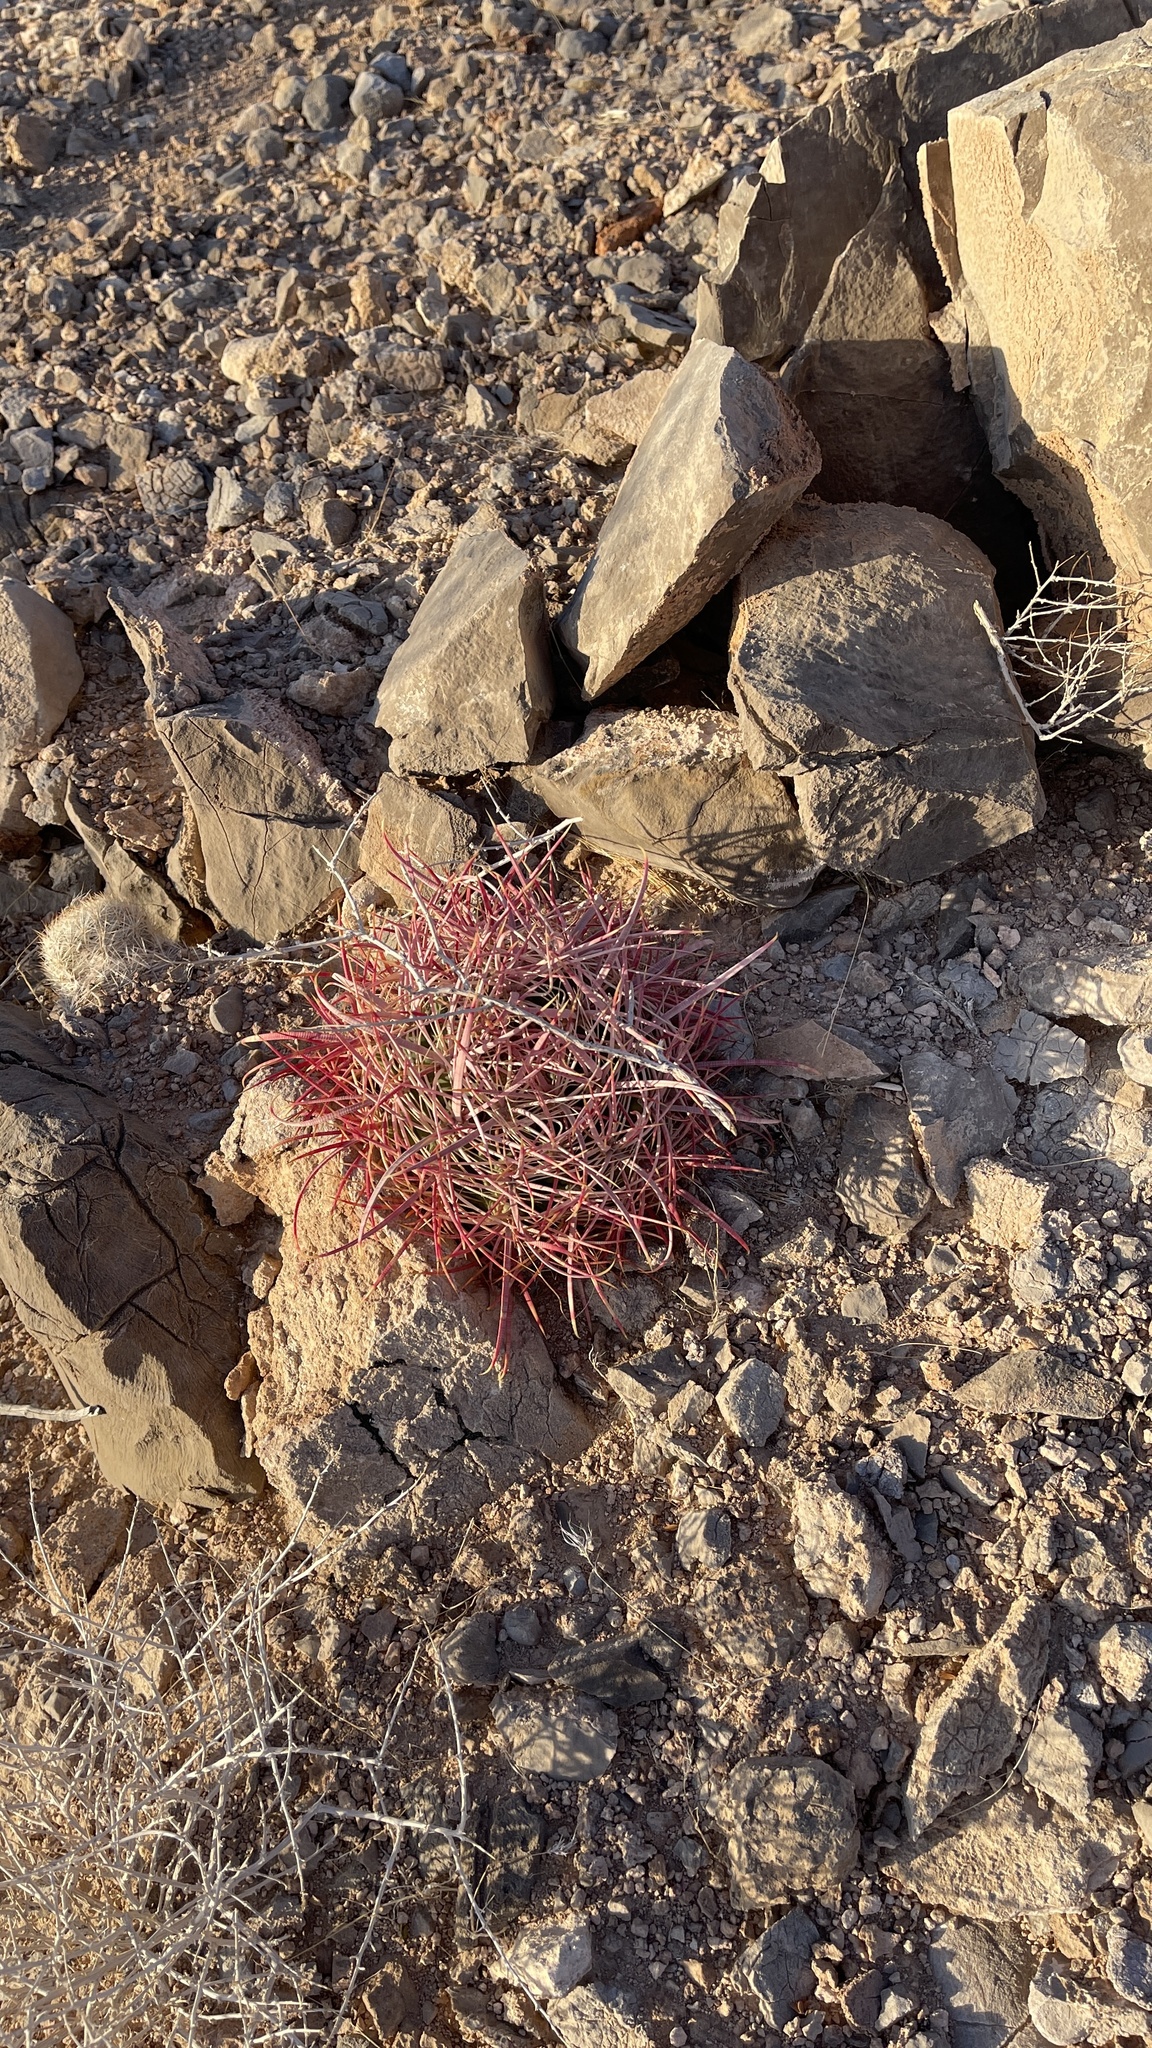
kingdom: Plantae
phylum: Tracheophyta
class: Magnoliopsida
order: Caryophyllales
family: Cactaceae
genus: Ferocactus
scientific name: Ferocactus cylindraceus
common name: California barrel cactus
